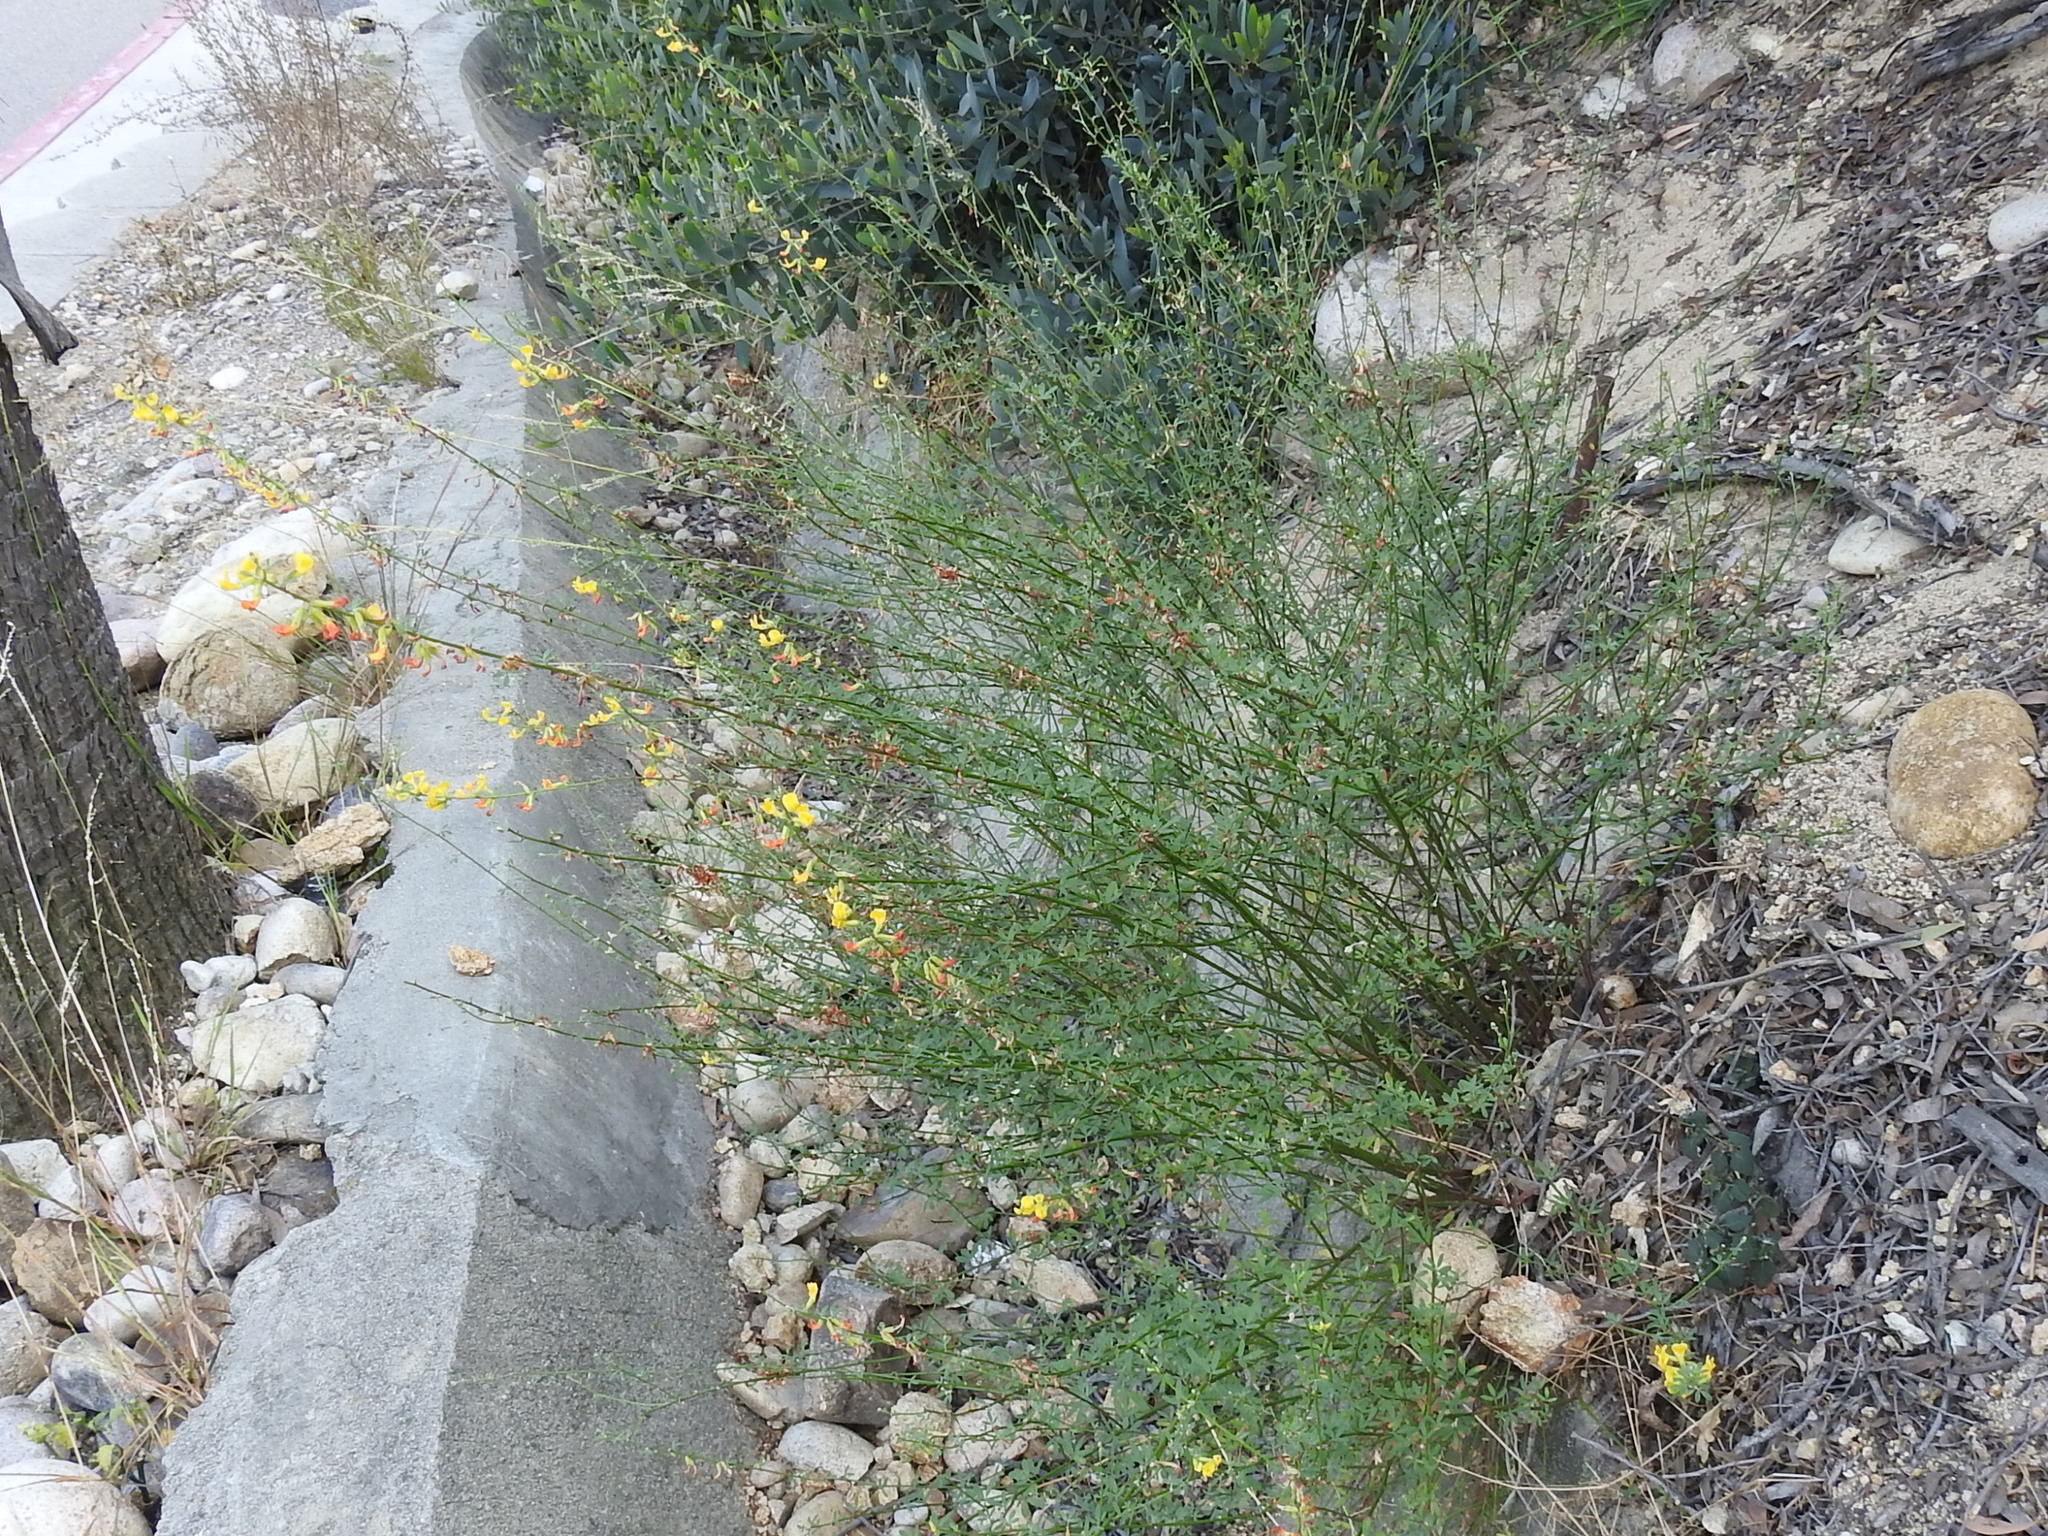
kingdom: Plantae
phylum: Tracheophyta
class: Magnoliopsida
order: Fabales
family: Fabaceae
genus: Acmispon
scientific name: Acmispon glaber
